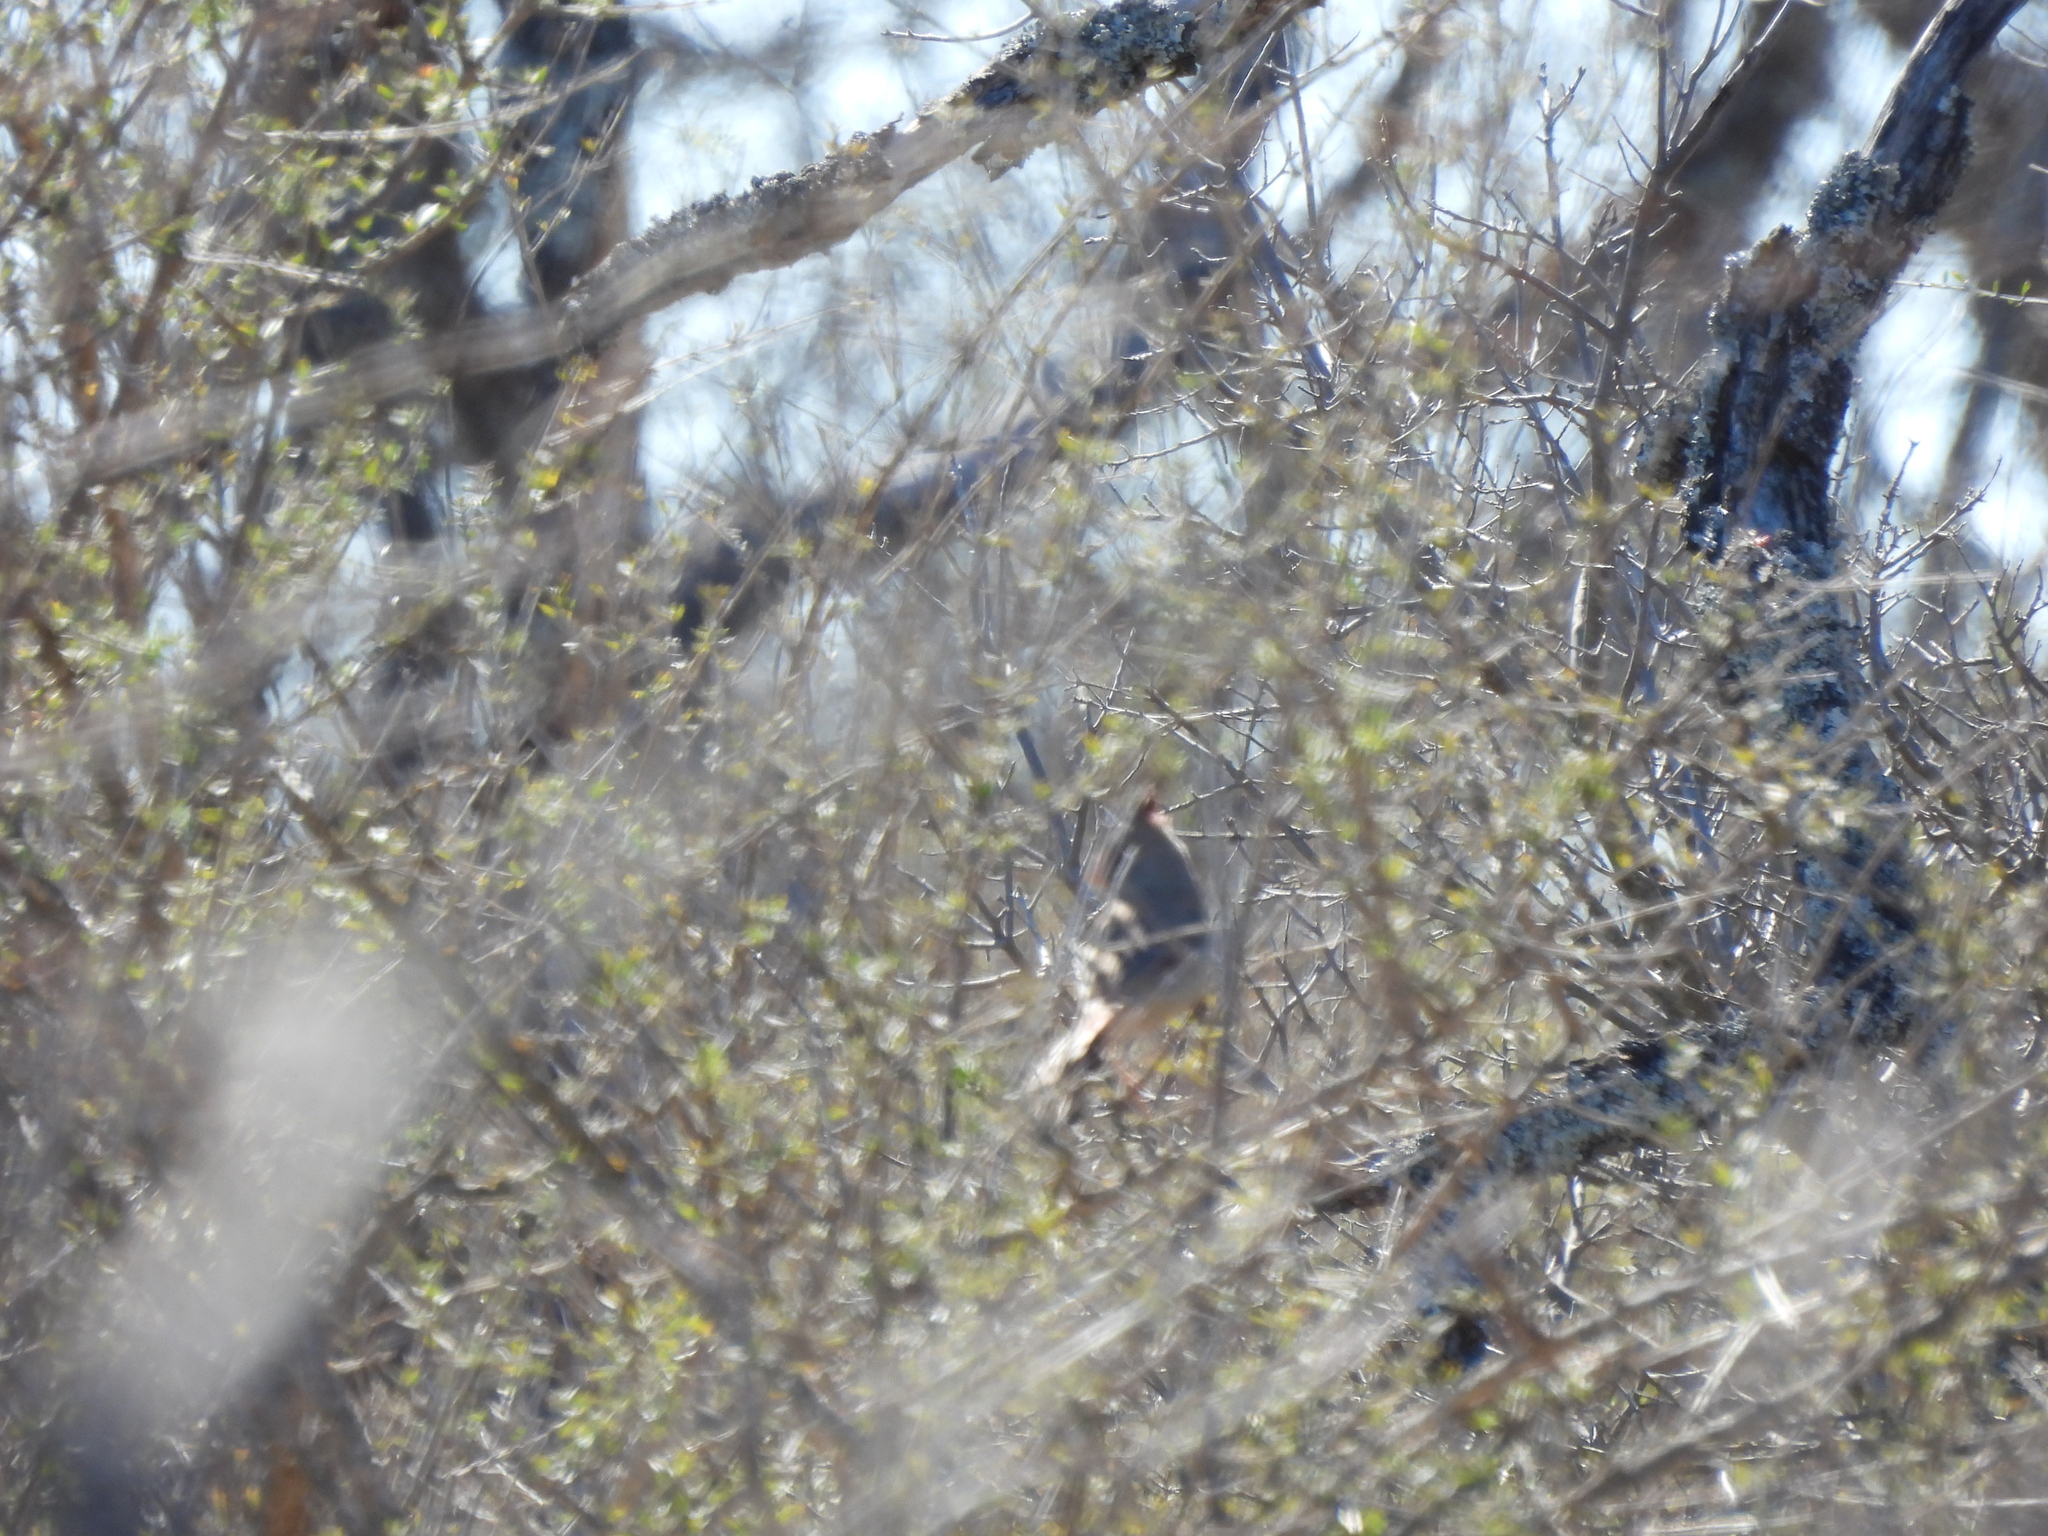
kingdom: Animalia
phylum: Chordata
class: Aves
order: Passeriformes
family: Cardinalidae
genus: Cardinalis
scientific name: Cardinalis sinuatus
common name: Pyrrhuloxia
